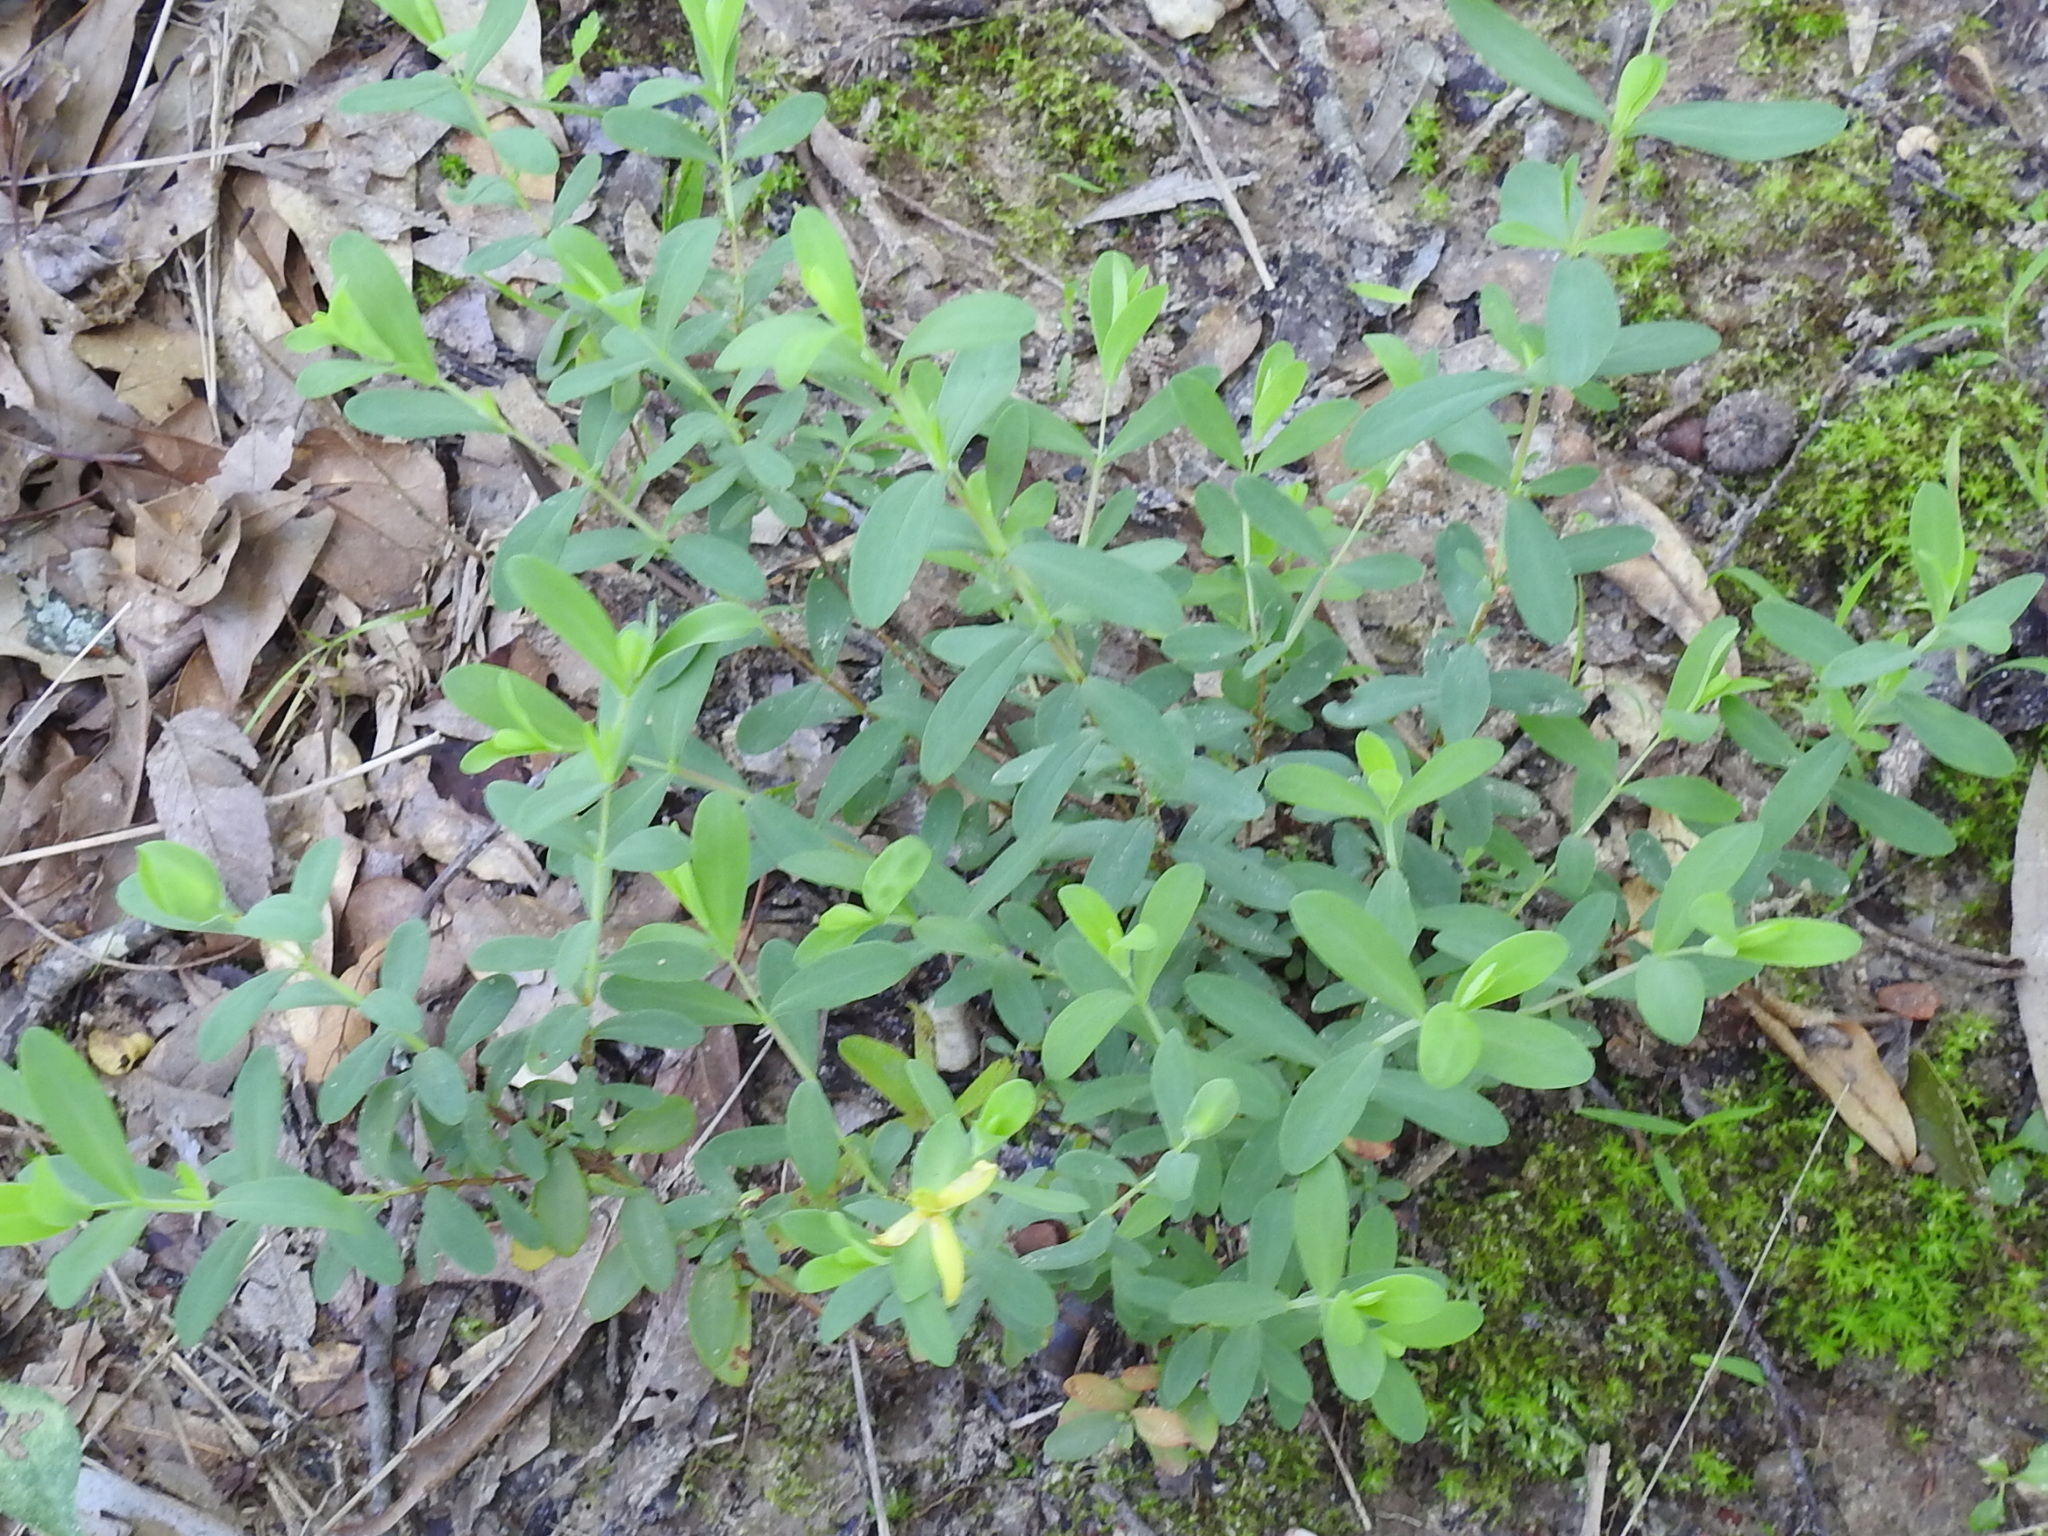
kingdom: Plantae
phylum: Tracheophyta
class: Magnoliopsida
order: Malpighiales
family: Hypericaceae
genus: Hypericum
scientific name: Hypericum hypericoides
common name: St. andrew's cross
